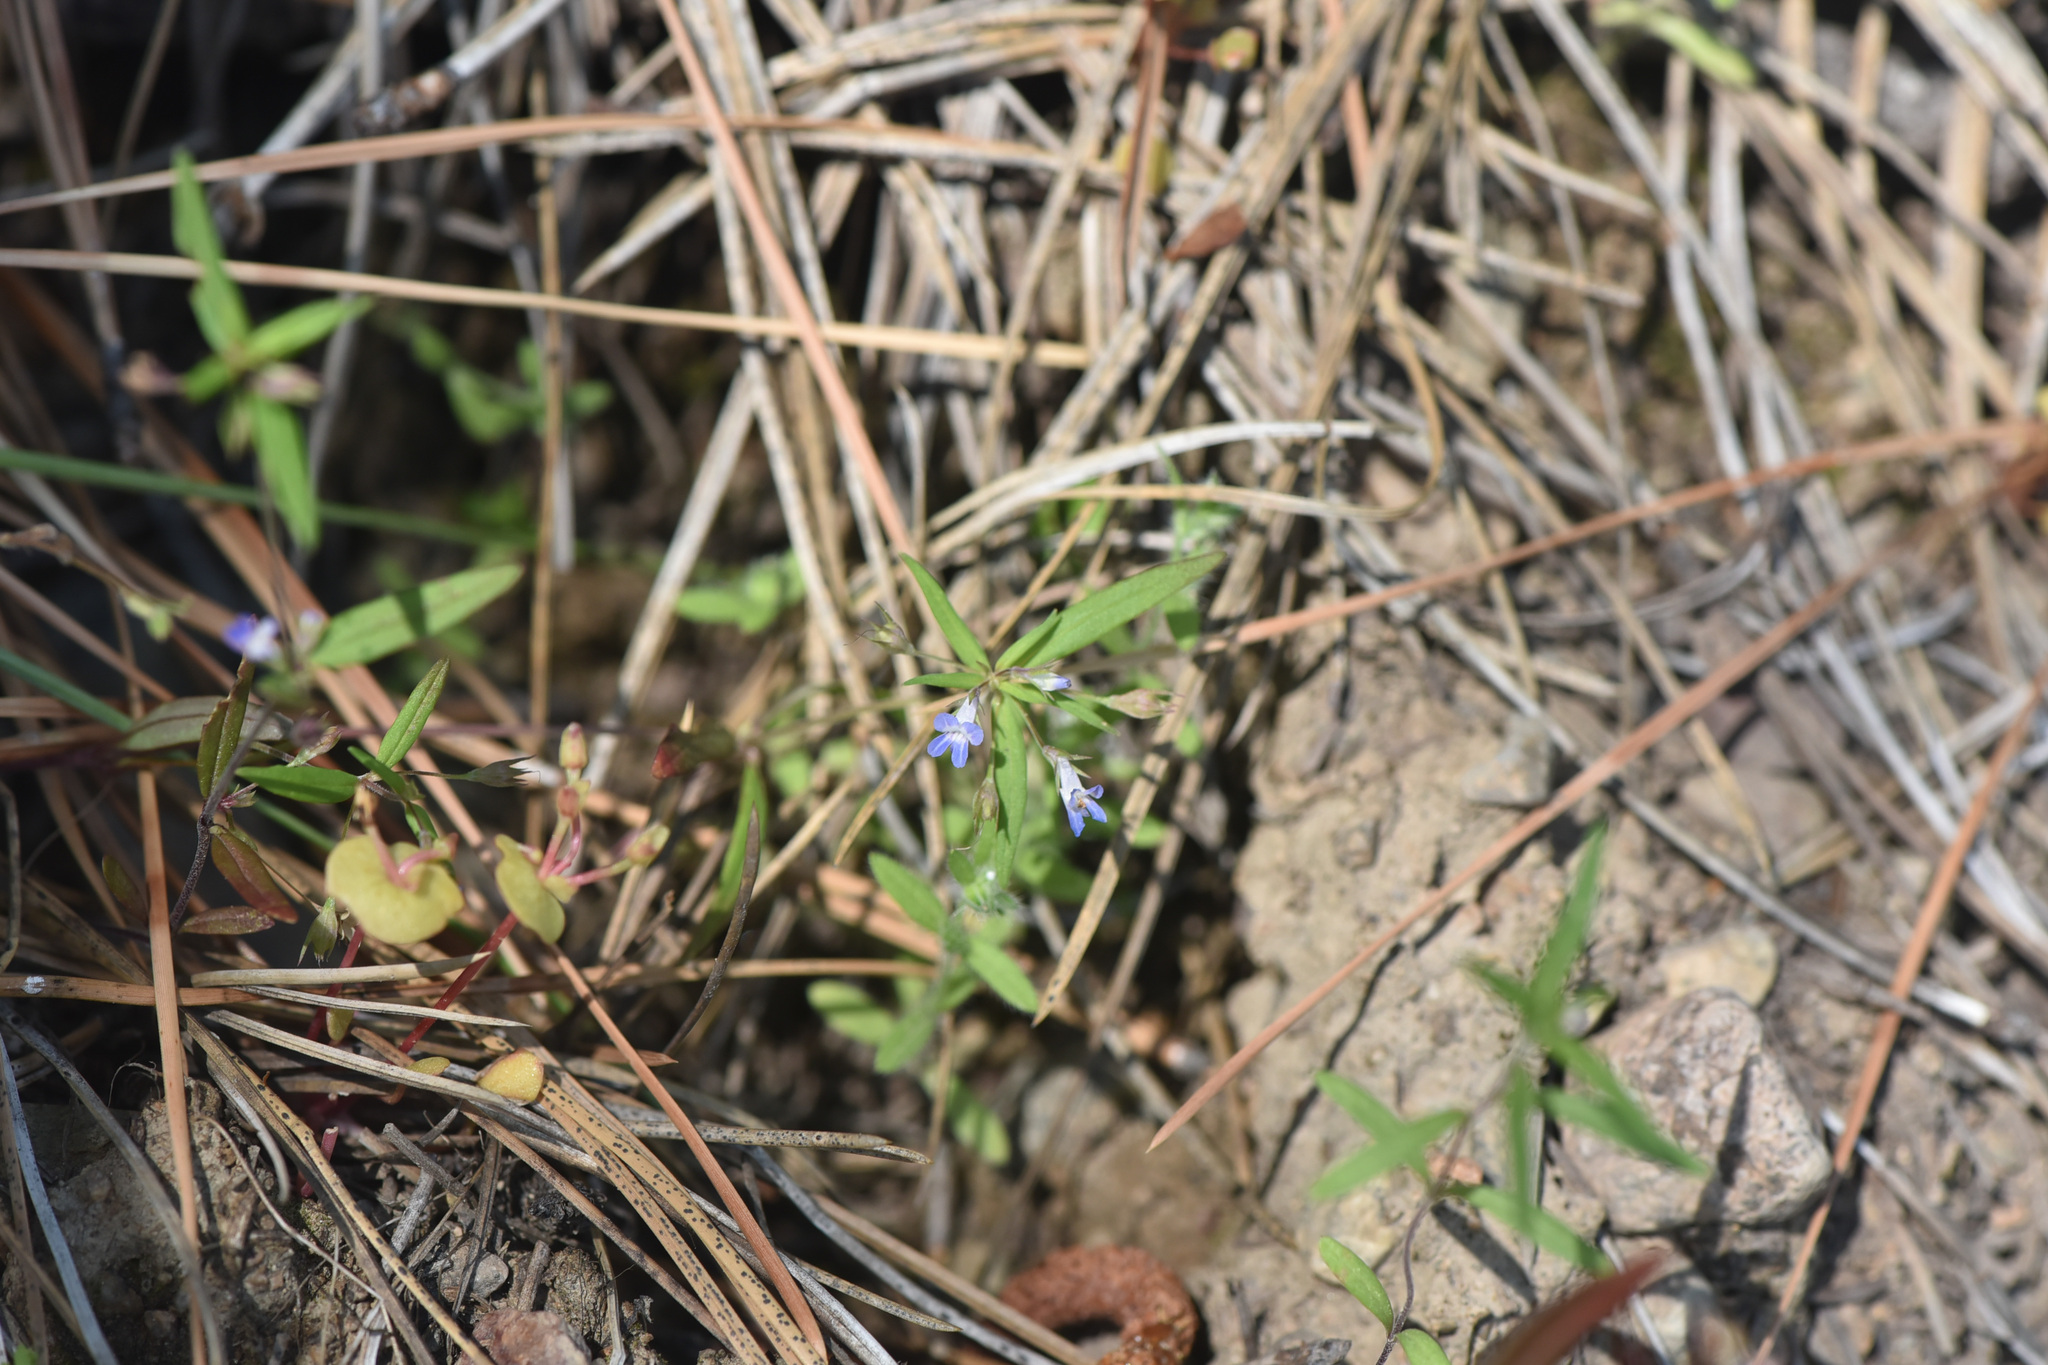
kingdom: Plantae
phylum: Tracheophyta
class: Magnoliopsida
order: Lamiales
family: Plantaginaceae
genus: Collinsia
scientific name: Collinsia parviflora
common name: Blue-lips
